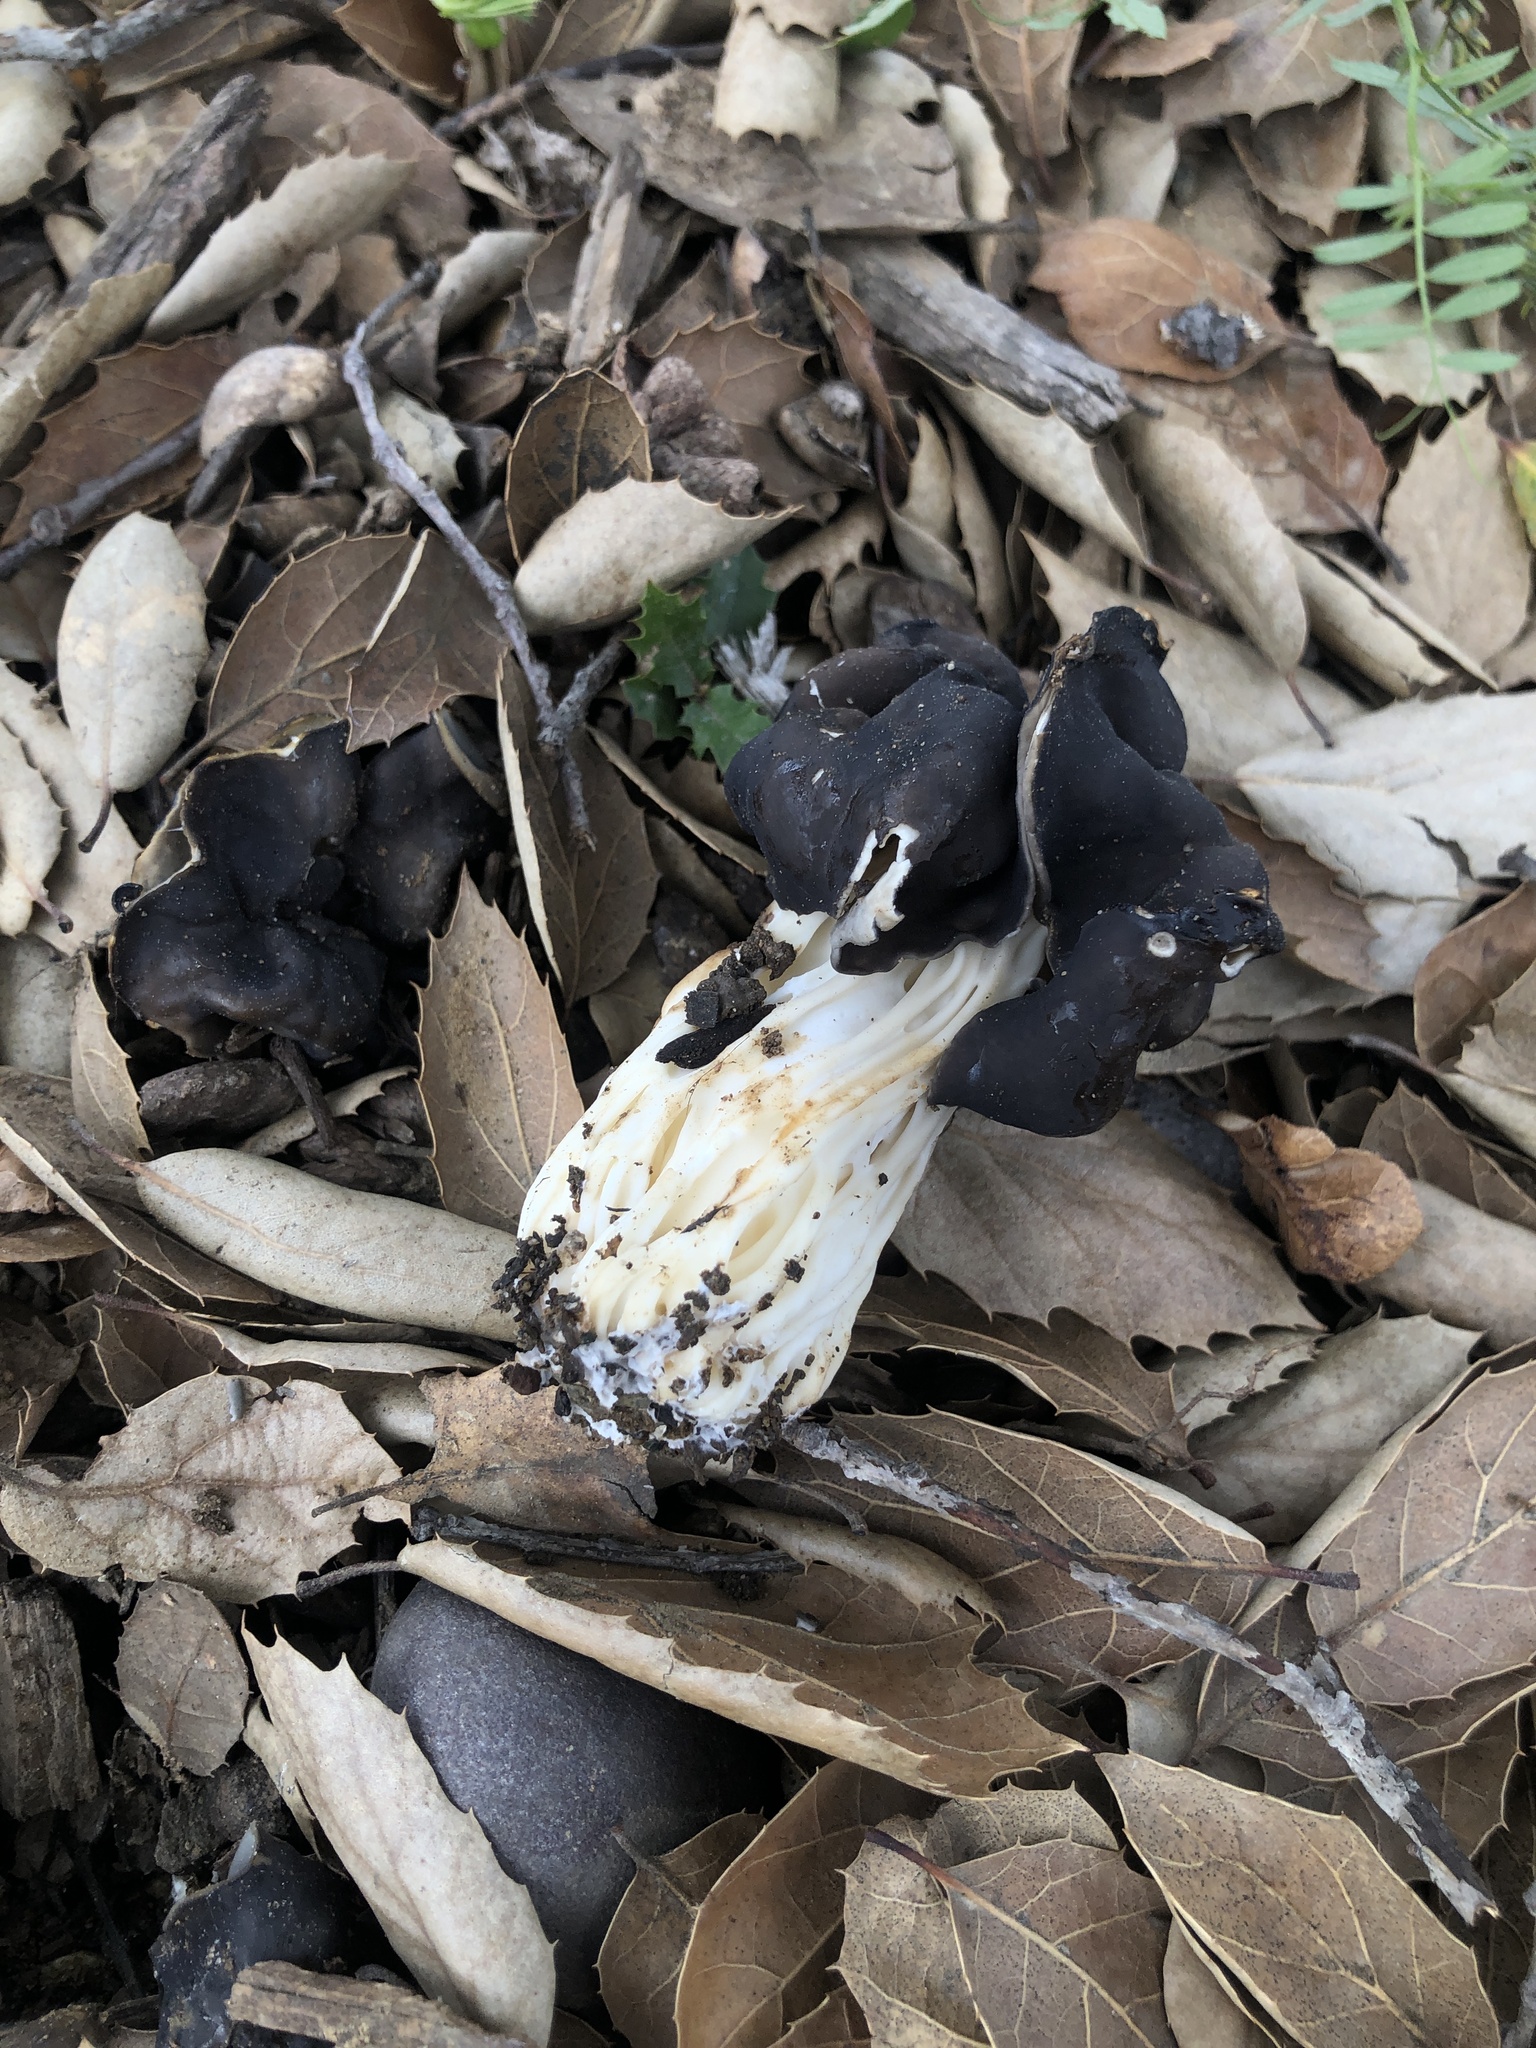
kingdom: Fungi
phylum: Ascomycota
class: Pezizomycetes
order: Pezizales
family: Helvellaceae
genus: Helvella
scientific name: Helvella dryophila
